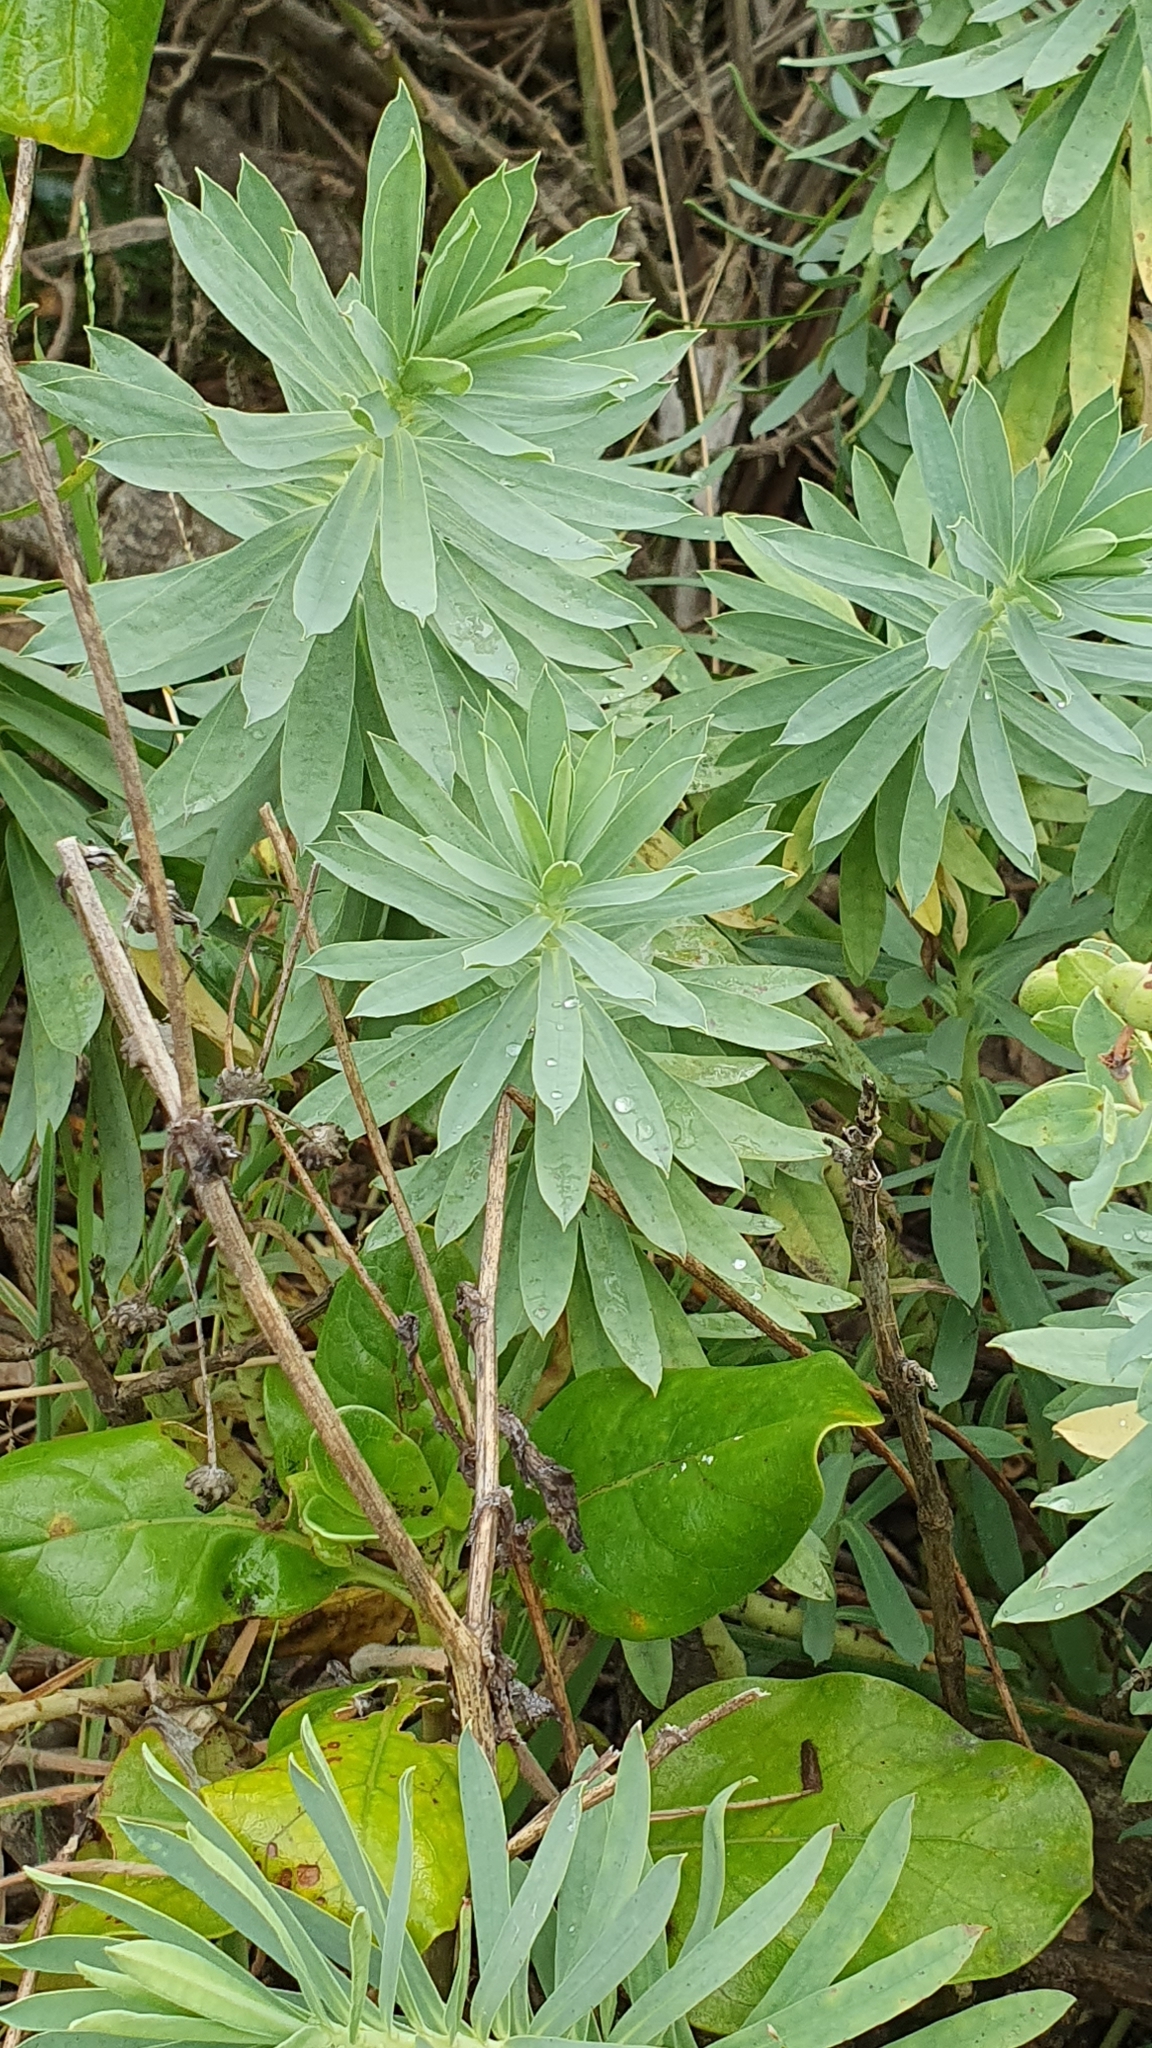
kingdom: Plantae
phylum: Tracheophyta
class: Magnoliopsida
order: Malpighiales
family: Euphorbiaceae
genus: Euphorbia
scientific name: Euphorbia glauca
